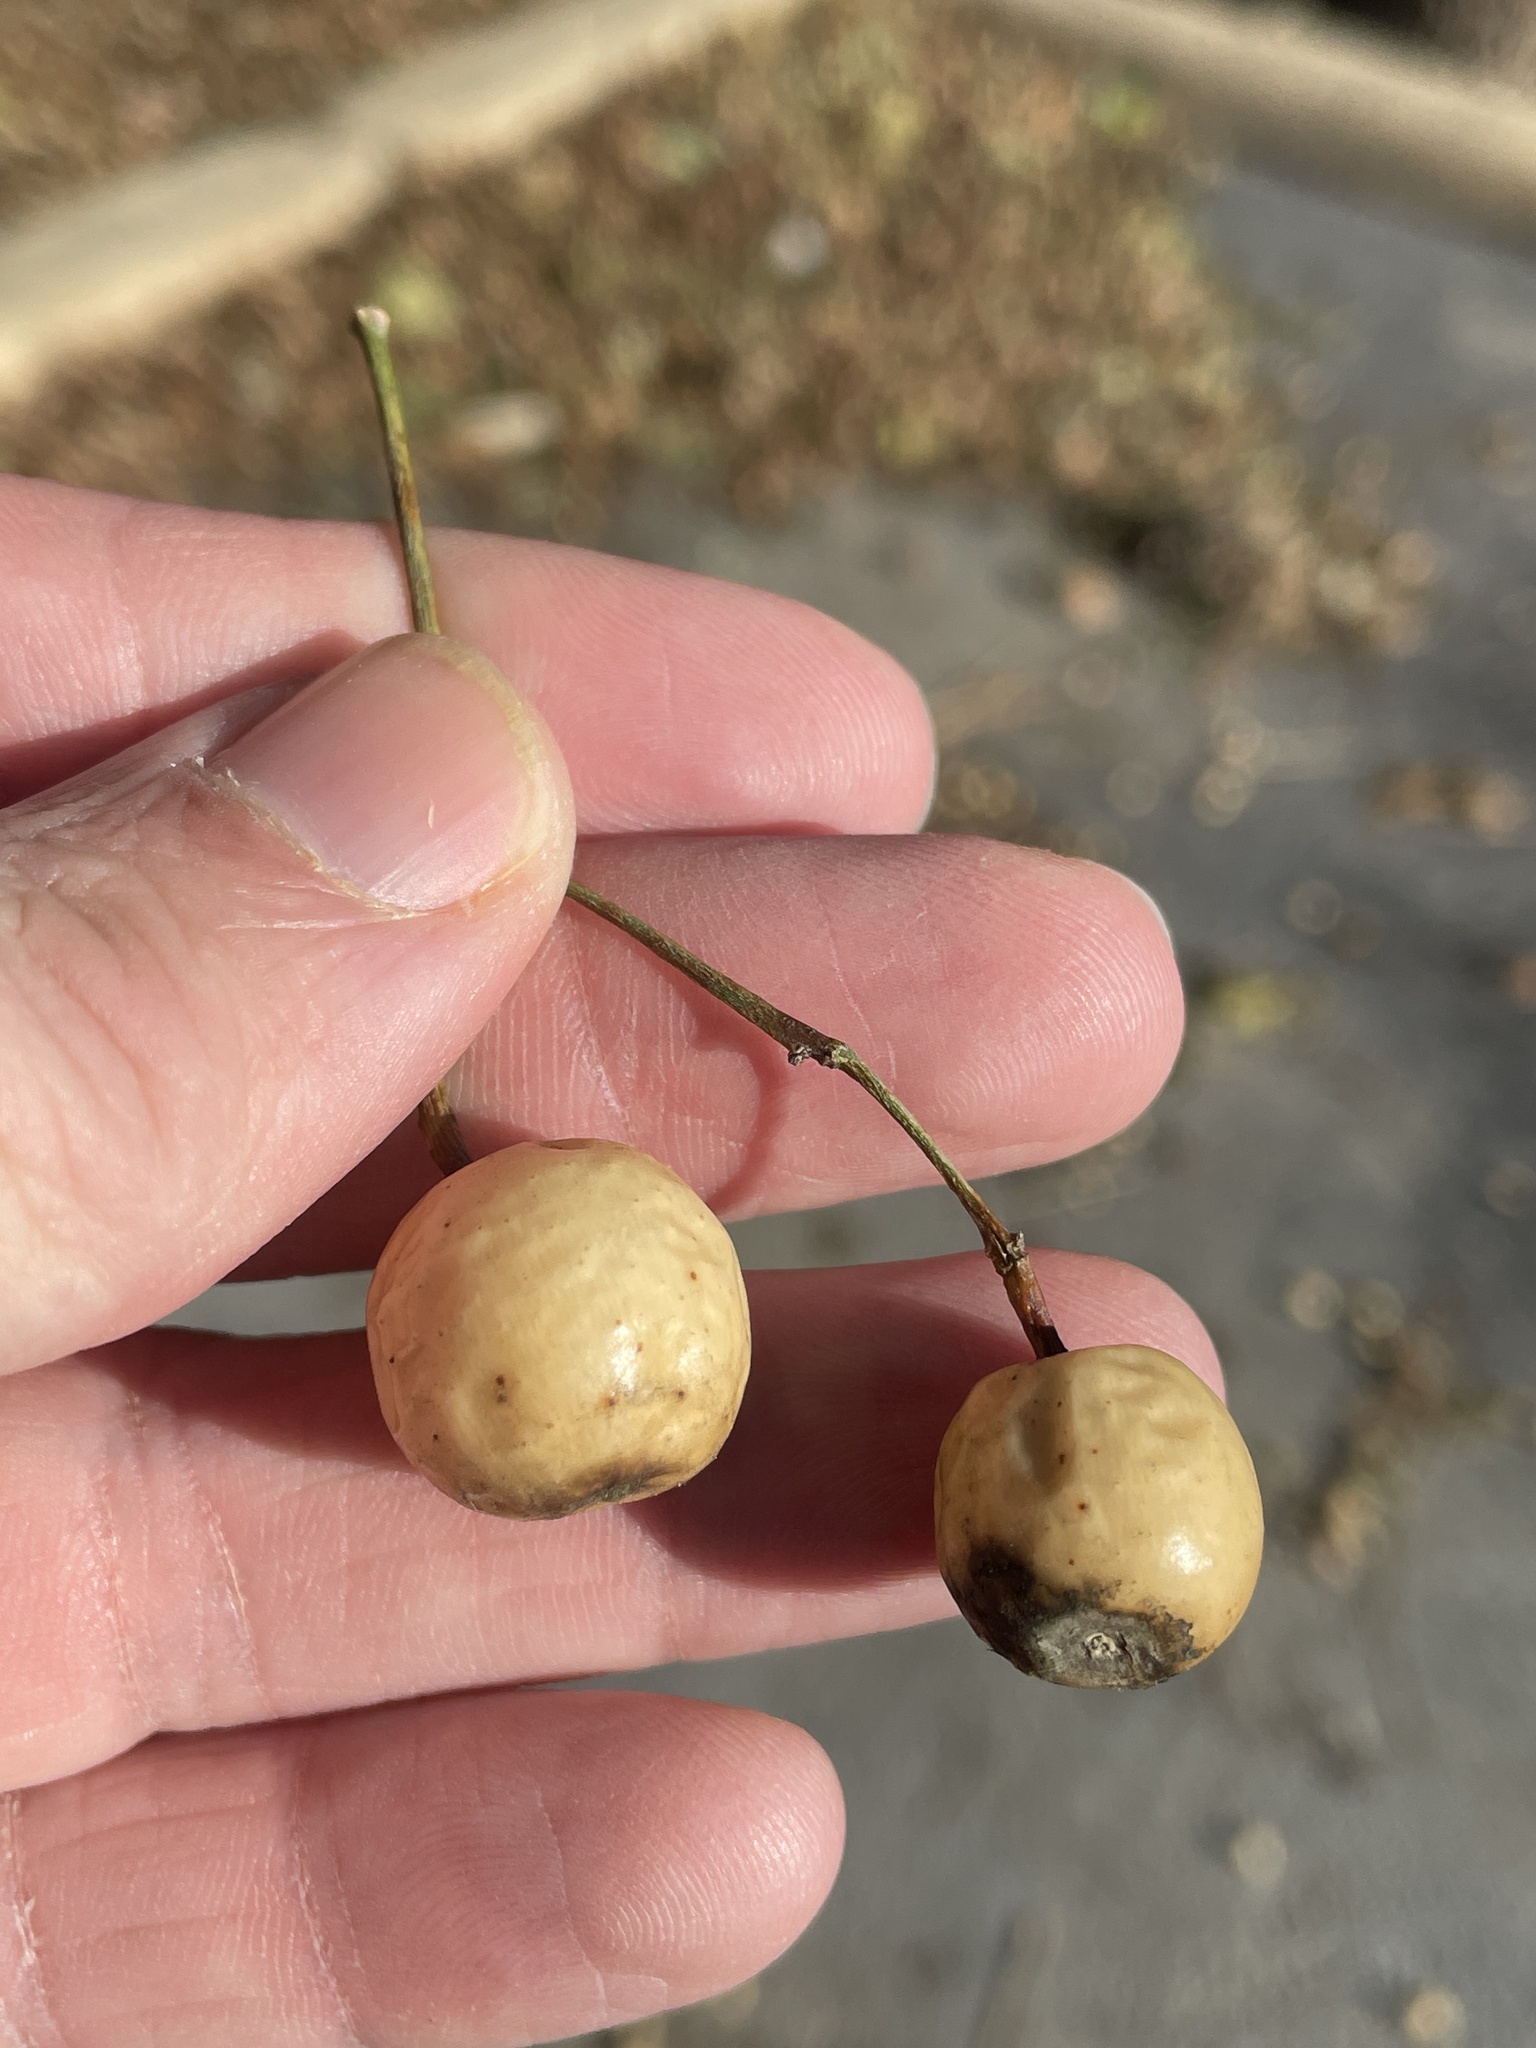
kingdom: Plantae
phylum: Tracheophyta
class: Magnoliopsida
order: Sapindales
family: Meliaceae
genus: Melia
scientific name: Melia azedarach
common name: Chinaberrytree
